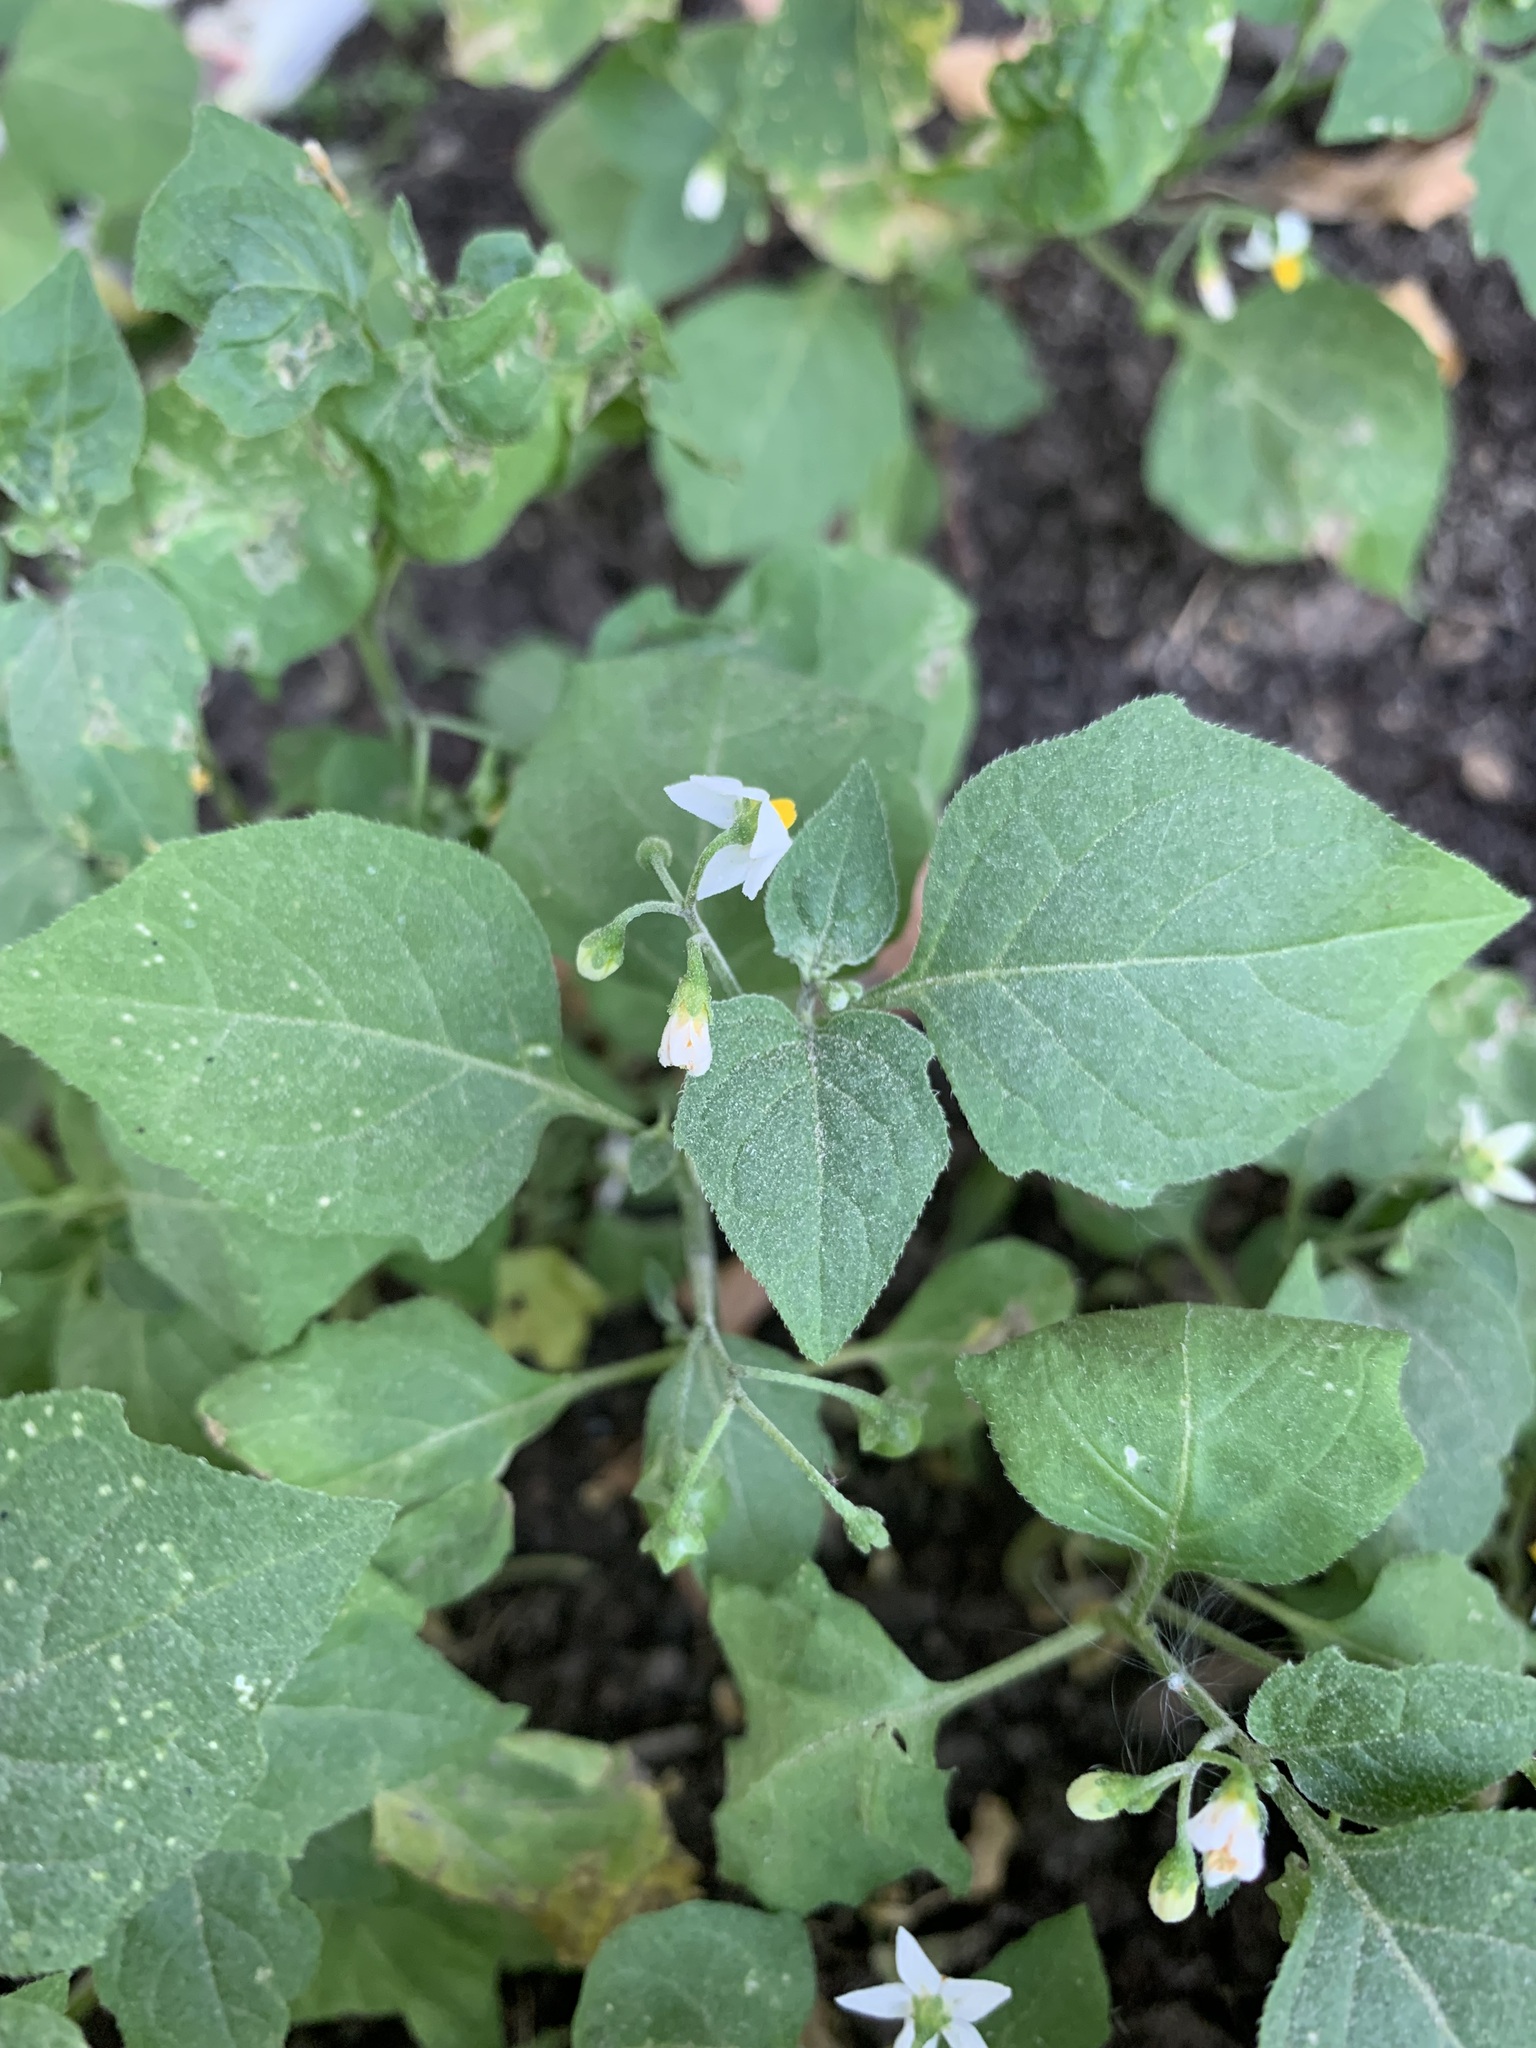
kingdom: Plantae
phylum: Tracheophyta
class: Magnoliopsida
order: Solanales
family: Solanaceae
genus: Solanum
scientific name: Solanum nigrum
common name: Black nightshade
